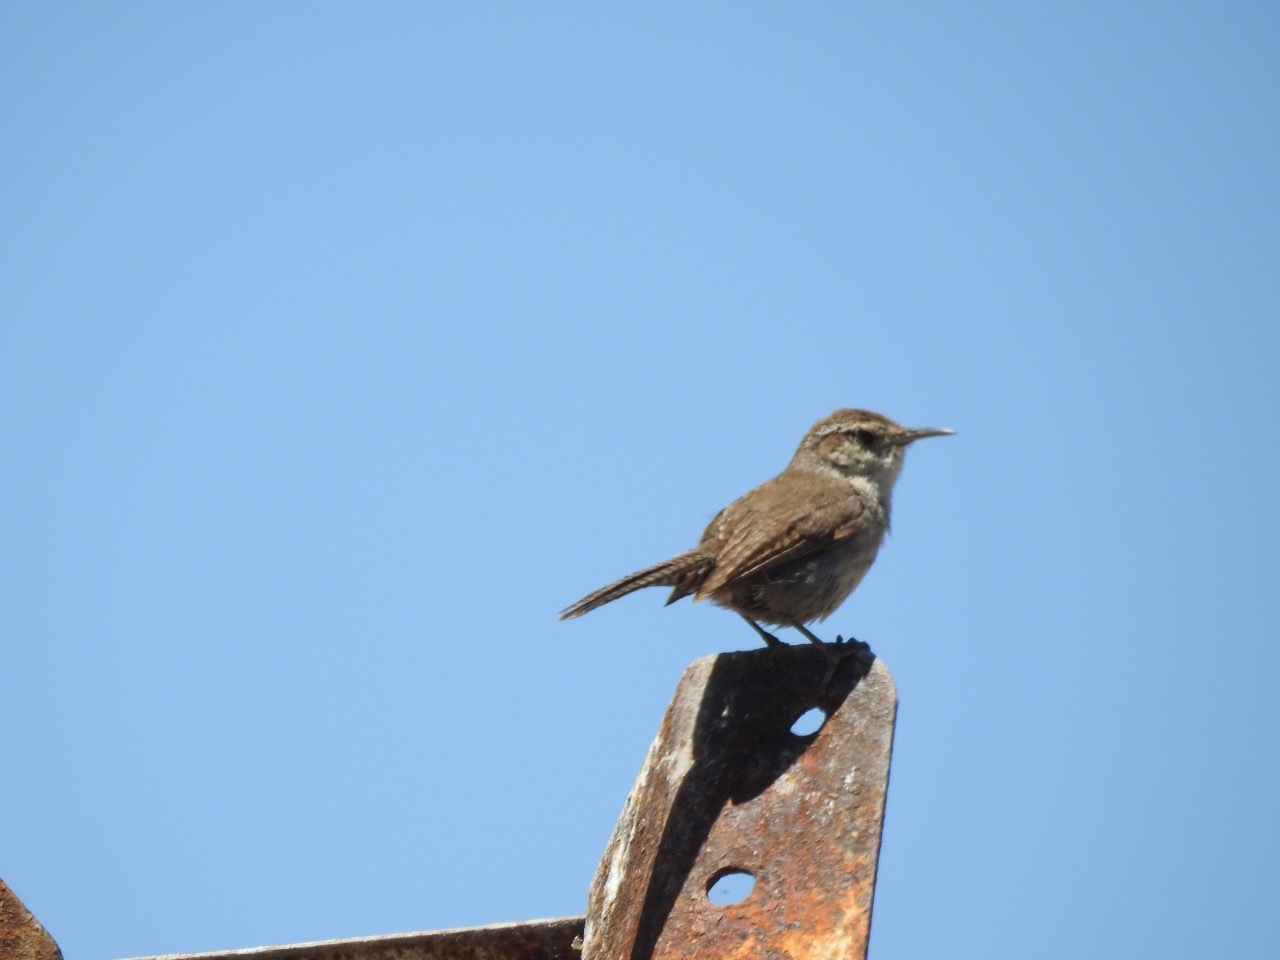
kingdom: Animalia
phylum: Chordata
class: Aves
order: Passeriformes
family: Troglodytidae
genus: Thryomanes
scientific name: Thryomanes bewickii
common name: Bewick's wren
